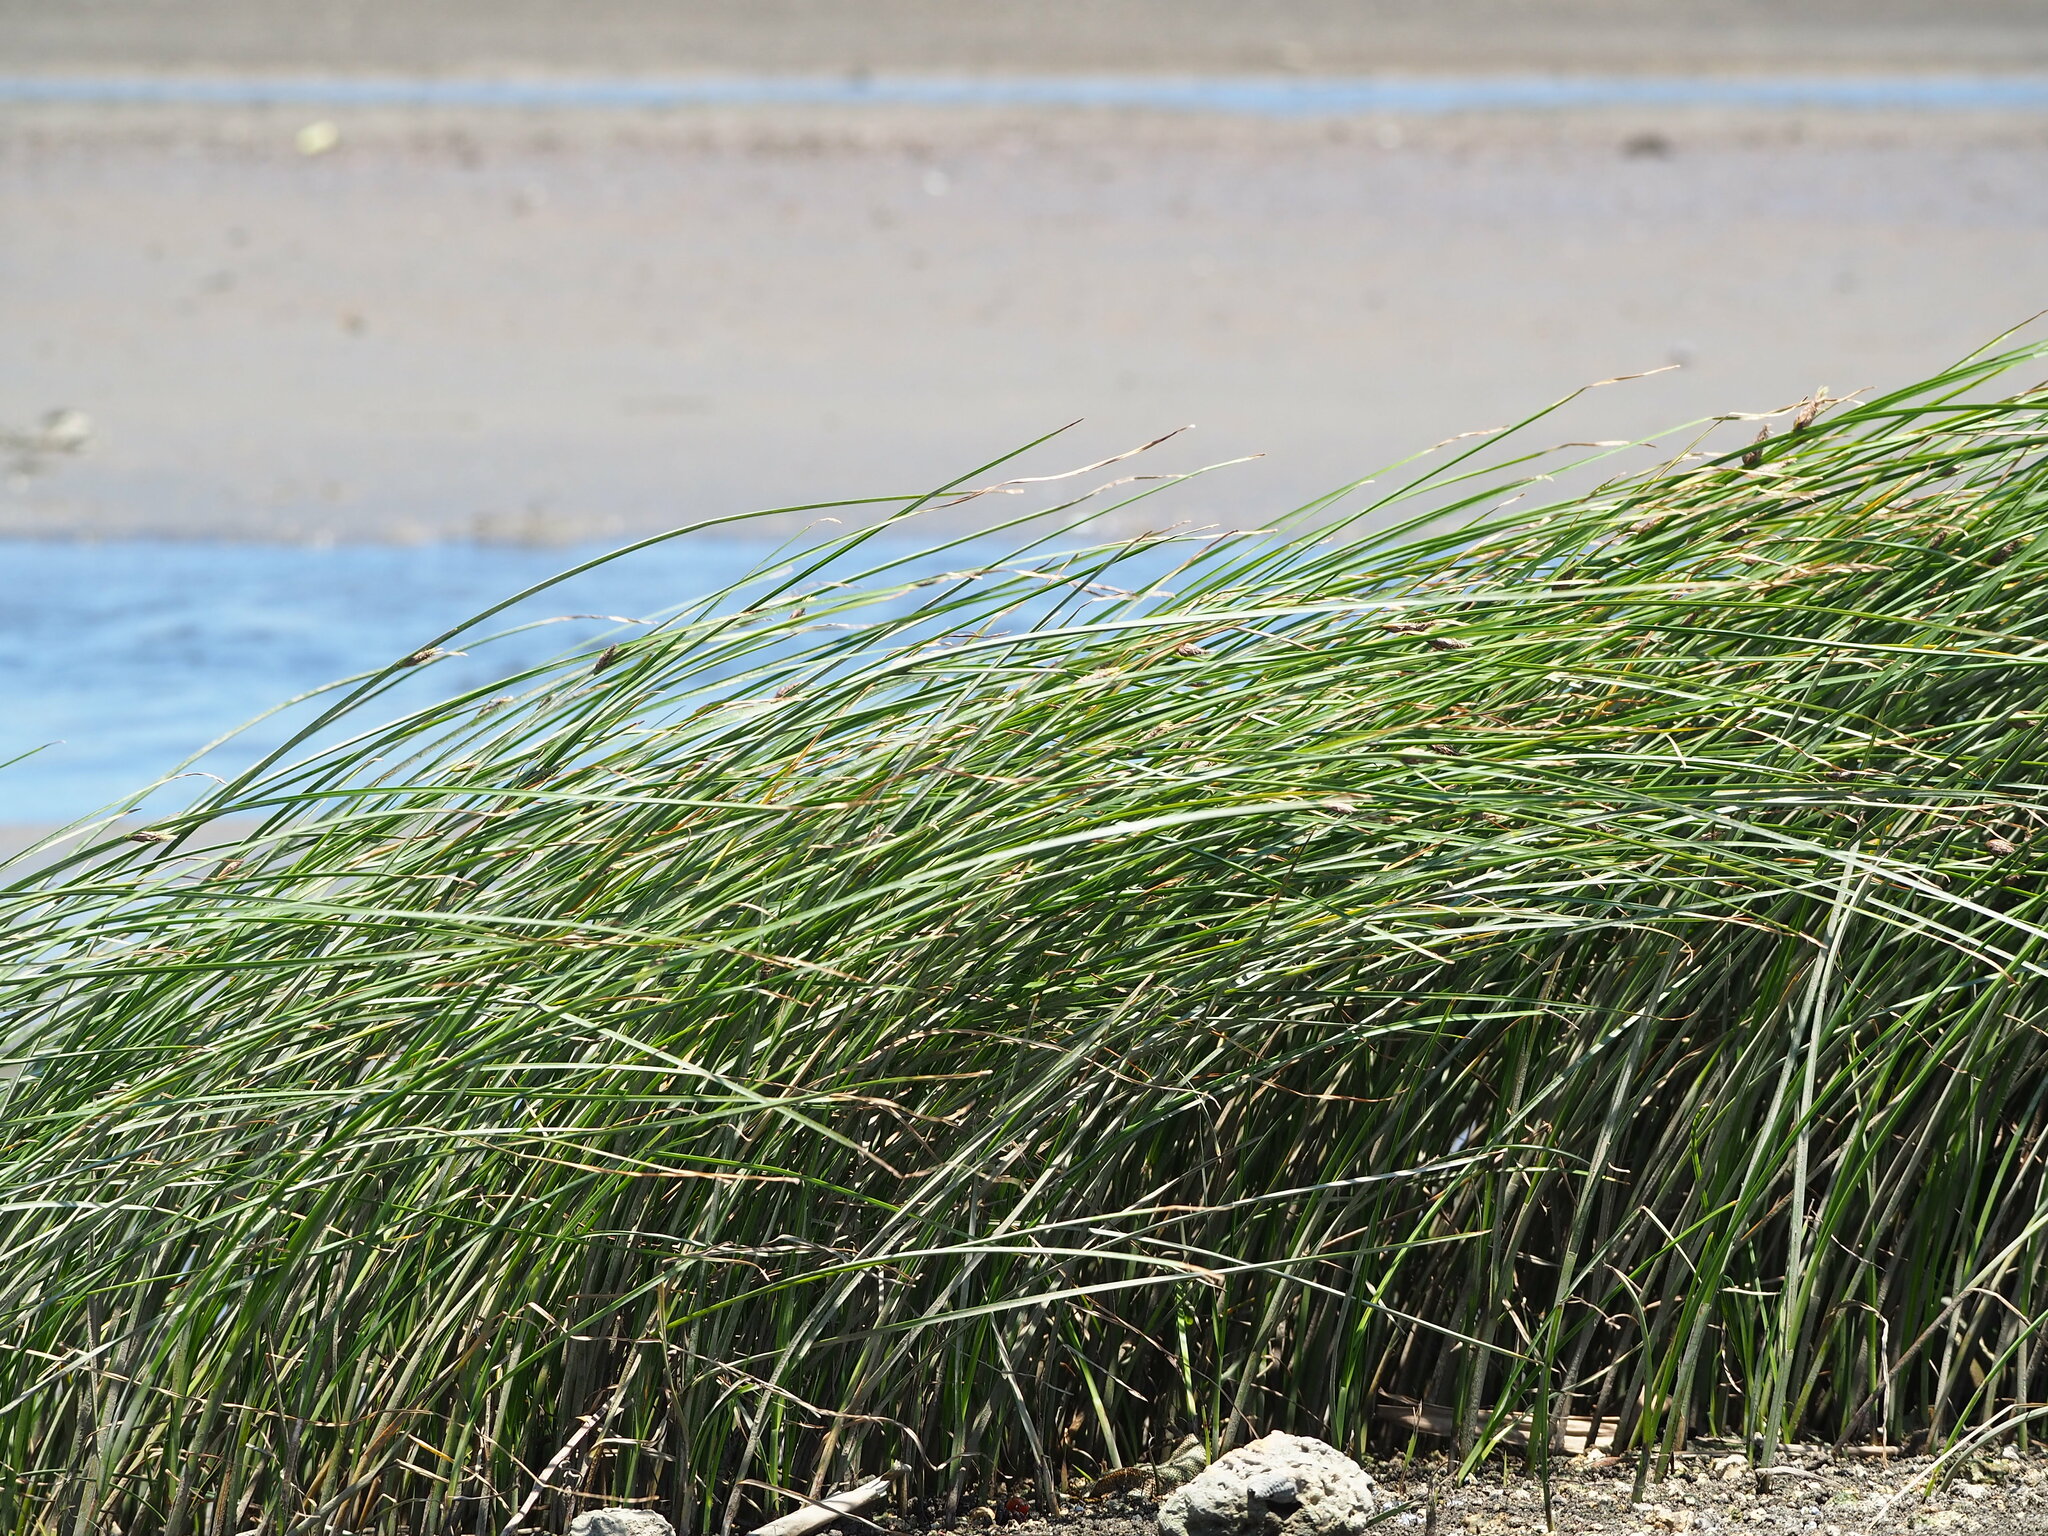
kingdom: Plantae
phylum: Tracheophyta
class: Liliopsida
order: Poales
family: Cyperaceae
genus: Bolboschoenus
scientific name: Bolboschoenus planiculmis
